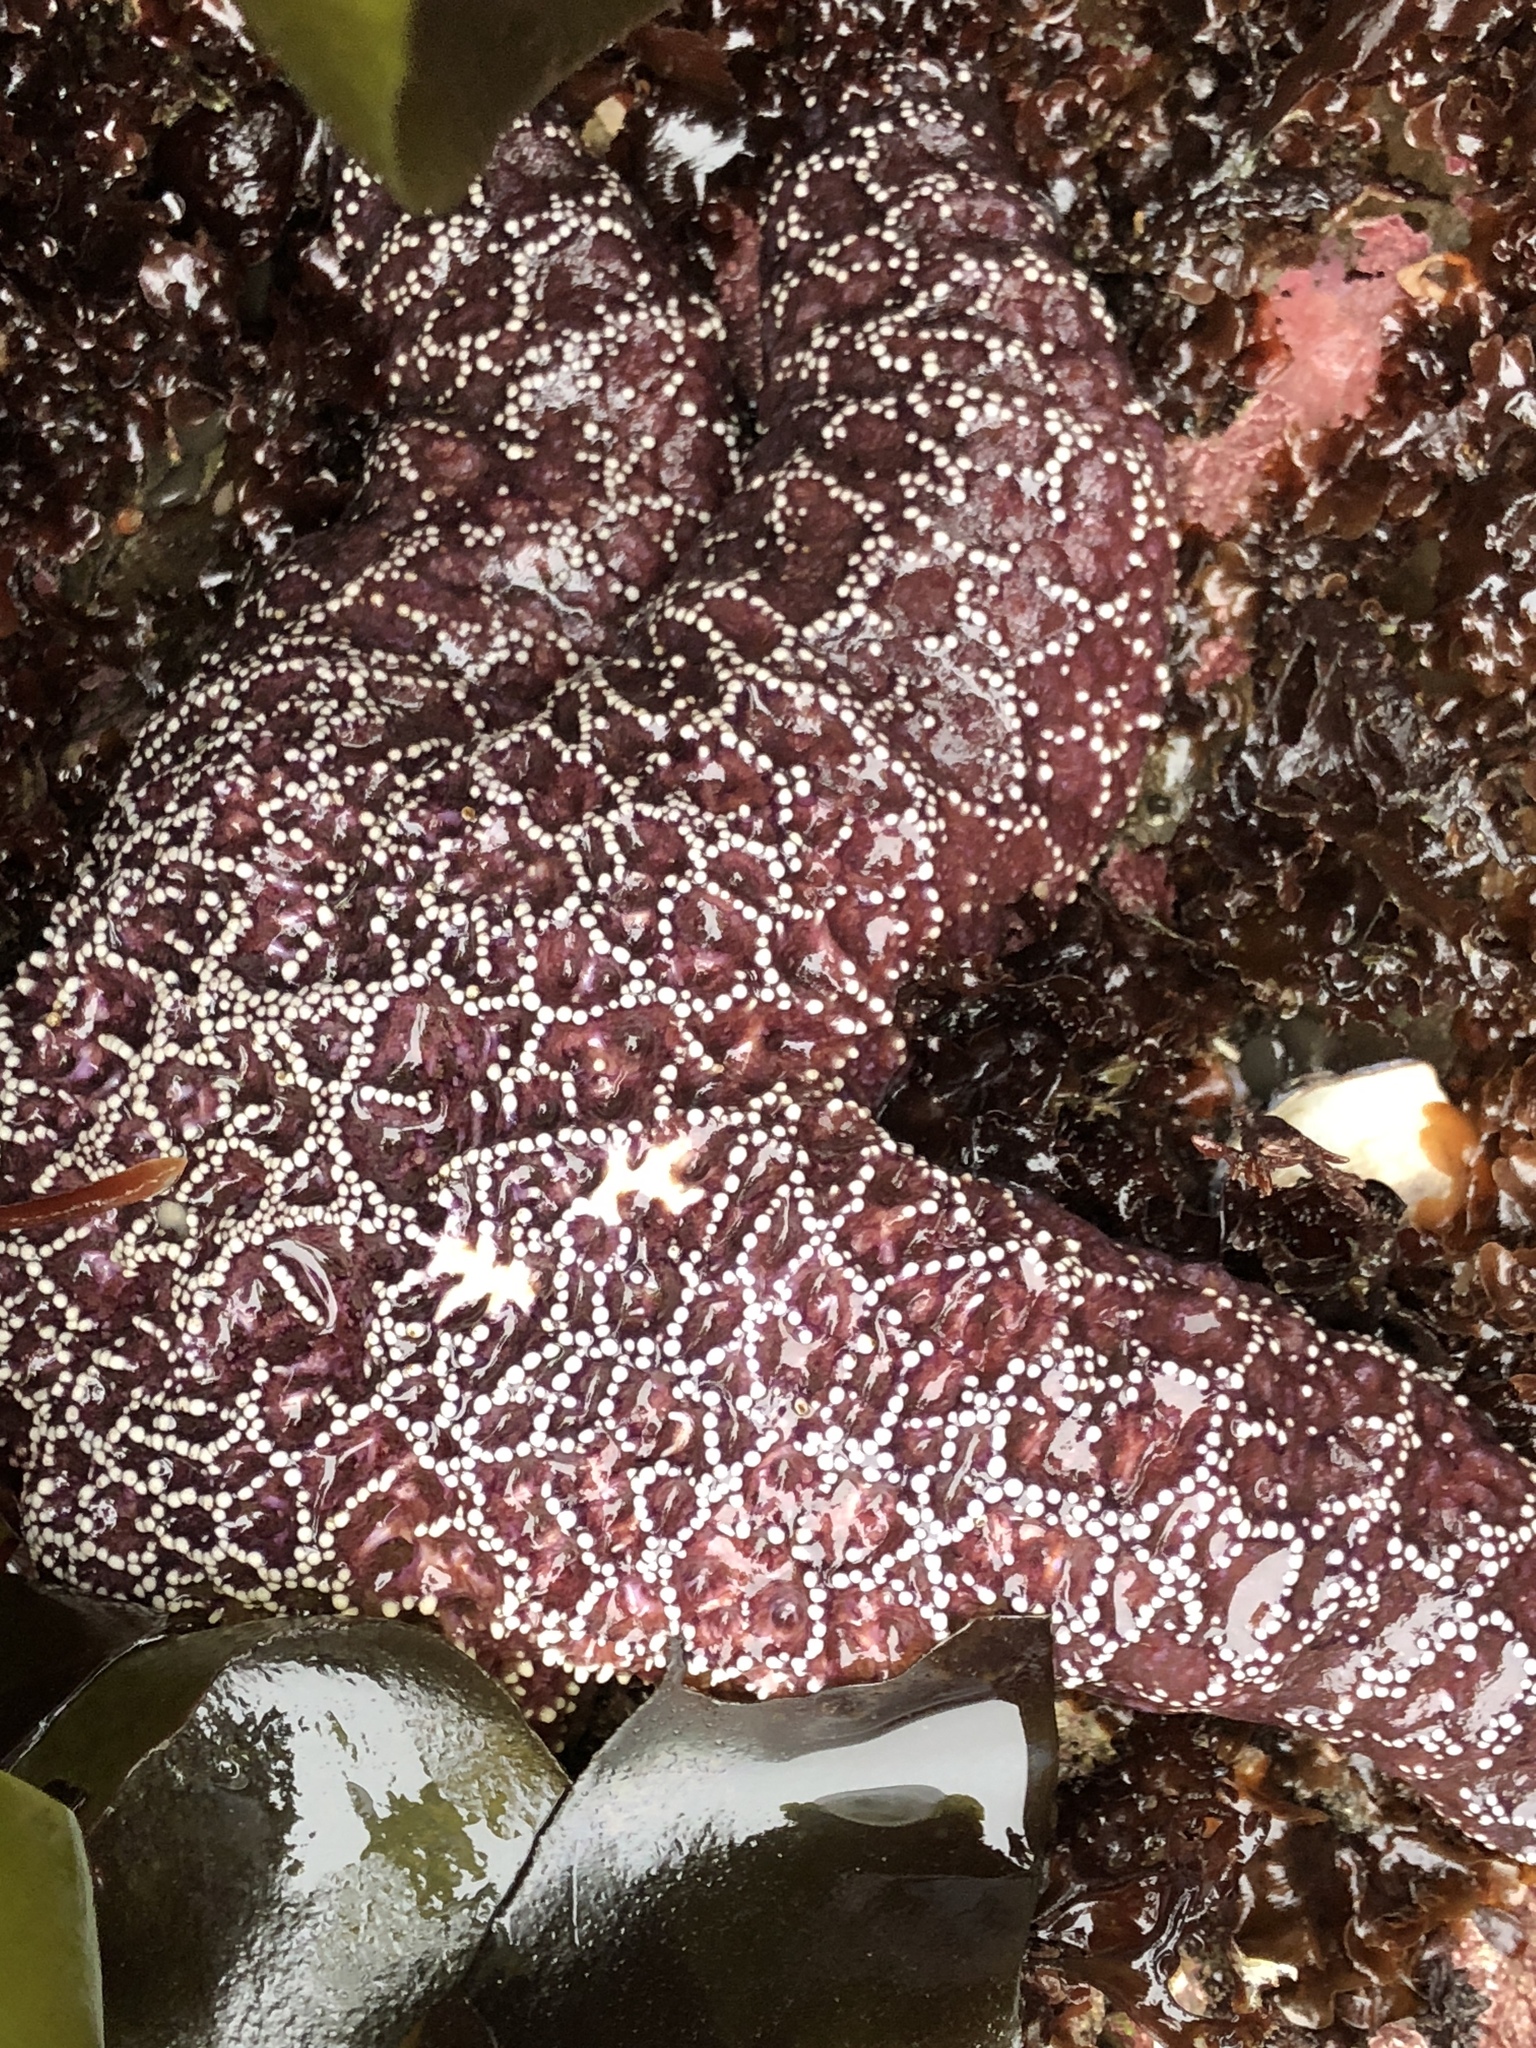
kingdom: Animalia
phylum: Echinodermata
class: Asteroidea
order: Forcipulatida
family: Asteriidae
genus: Pisaster
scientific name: Pisaster ochraceus
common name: Ochre stars
